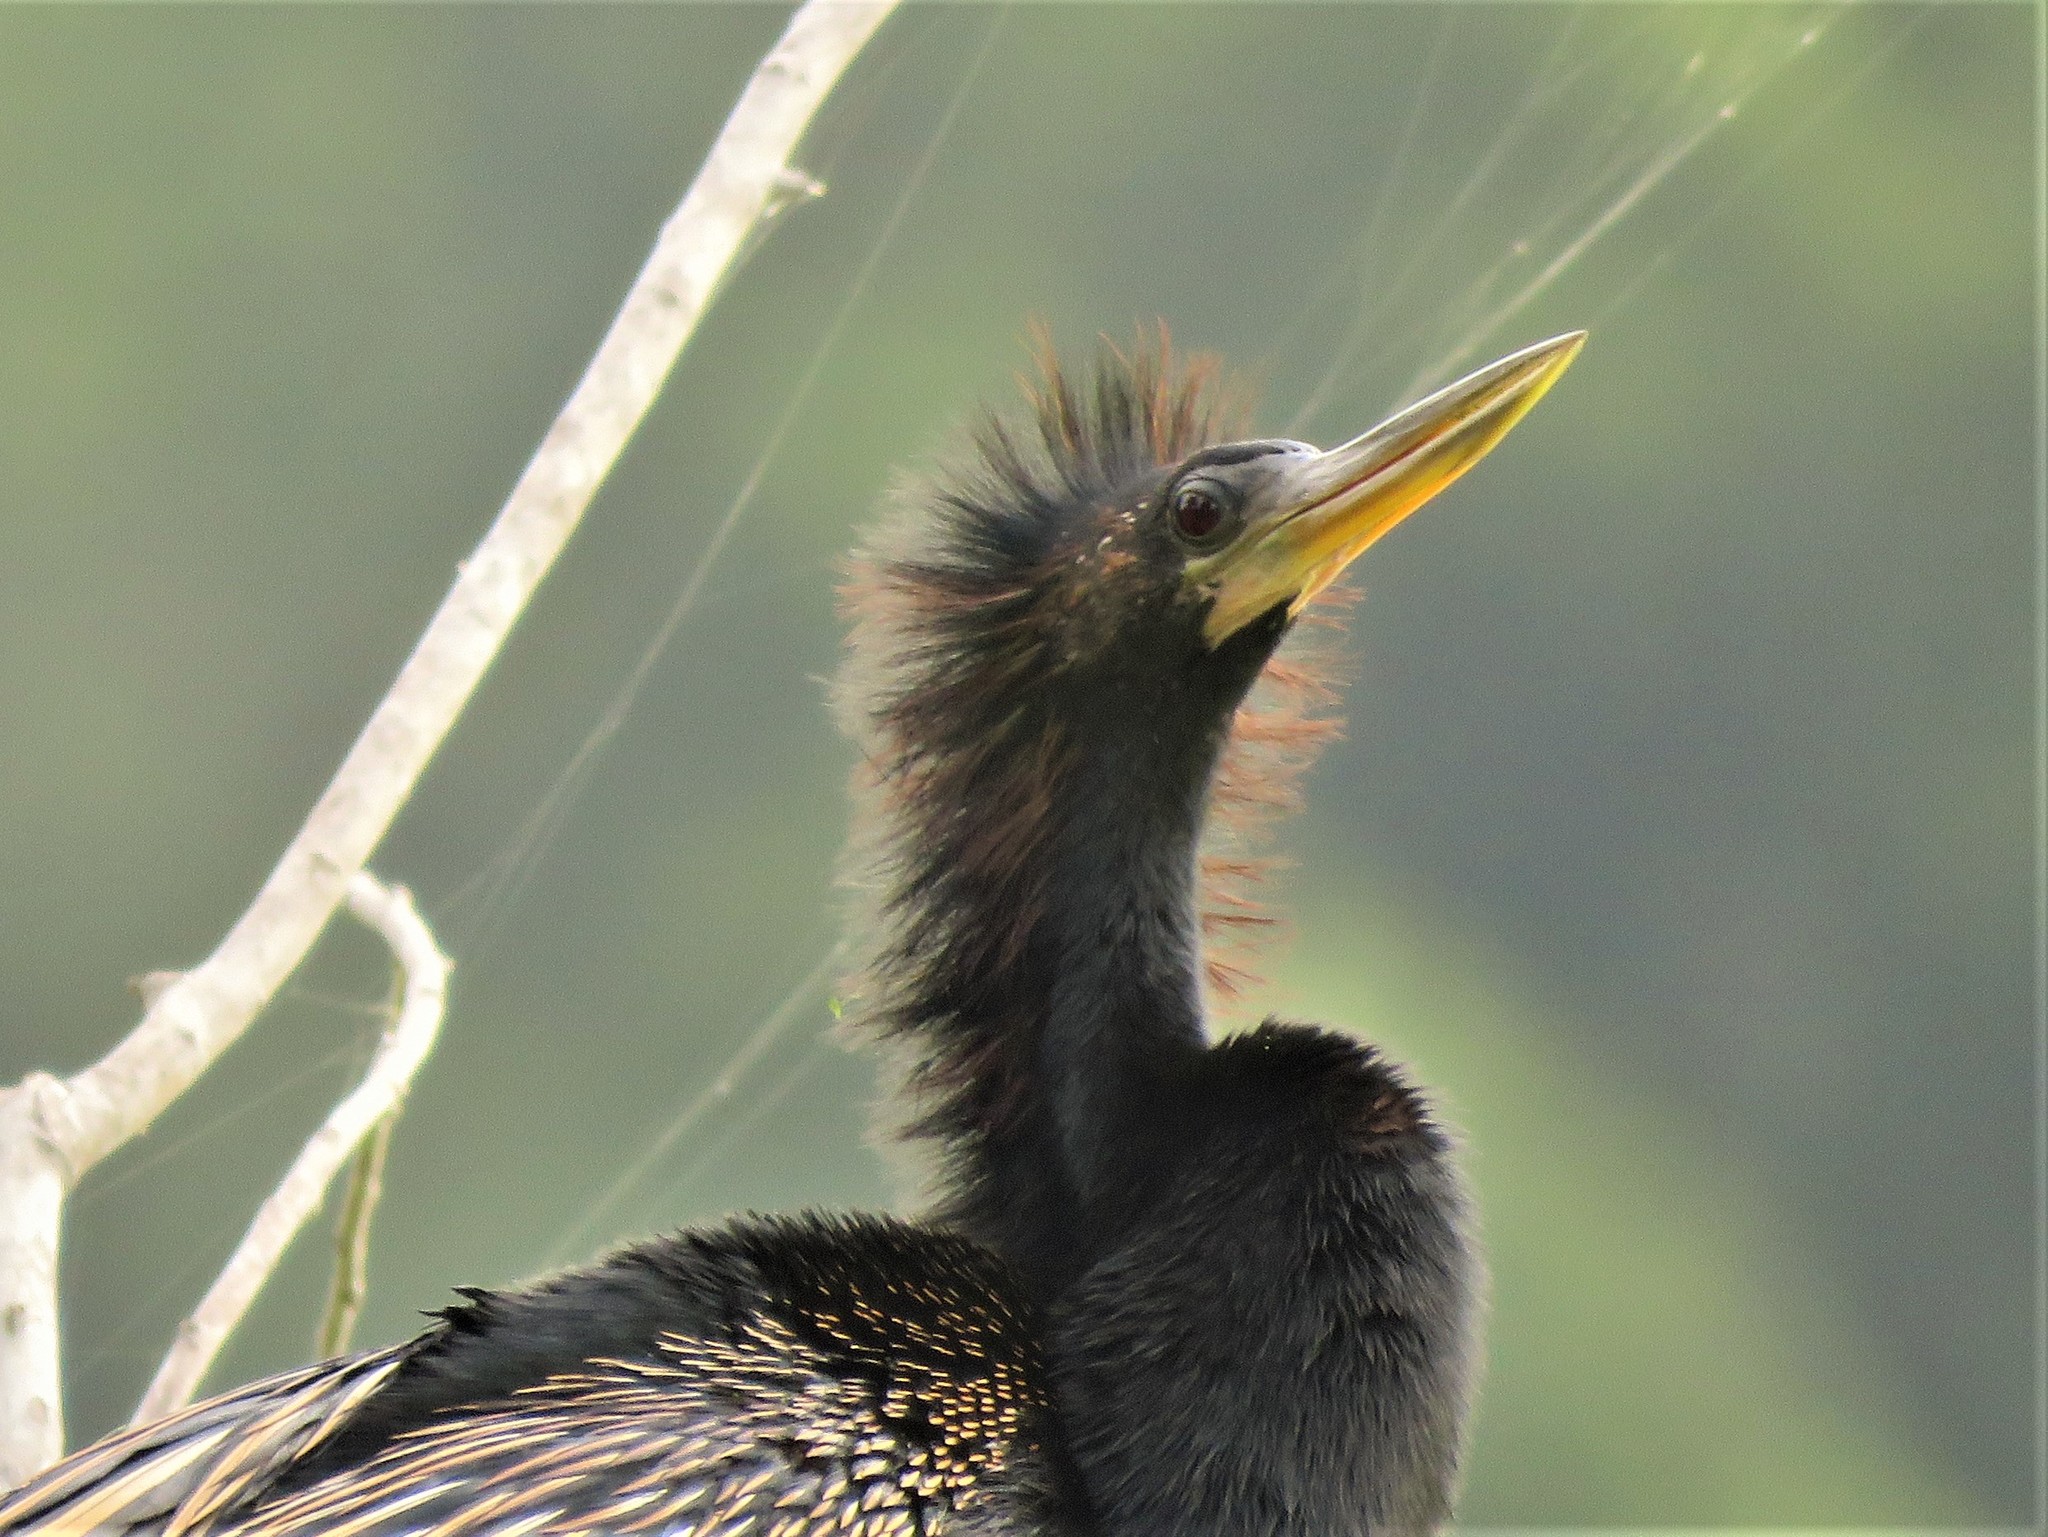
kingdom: Animalia
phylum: Chordata
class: Aves
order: Suliformes
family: Anhingidae
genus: Anhinga
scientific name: Anhinga anhinga
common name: Anhinga
